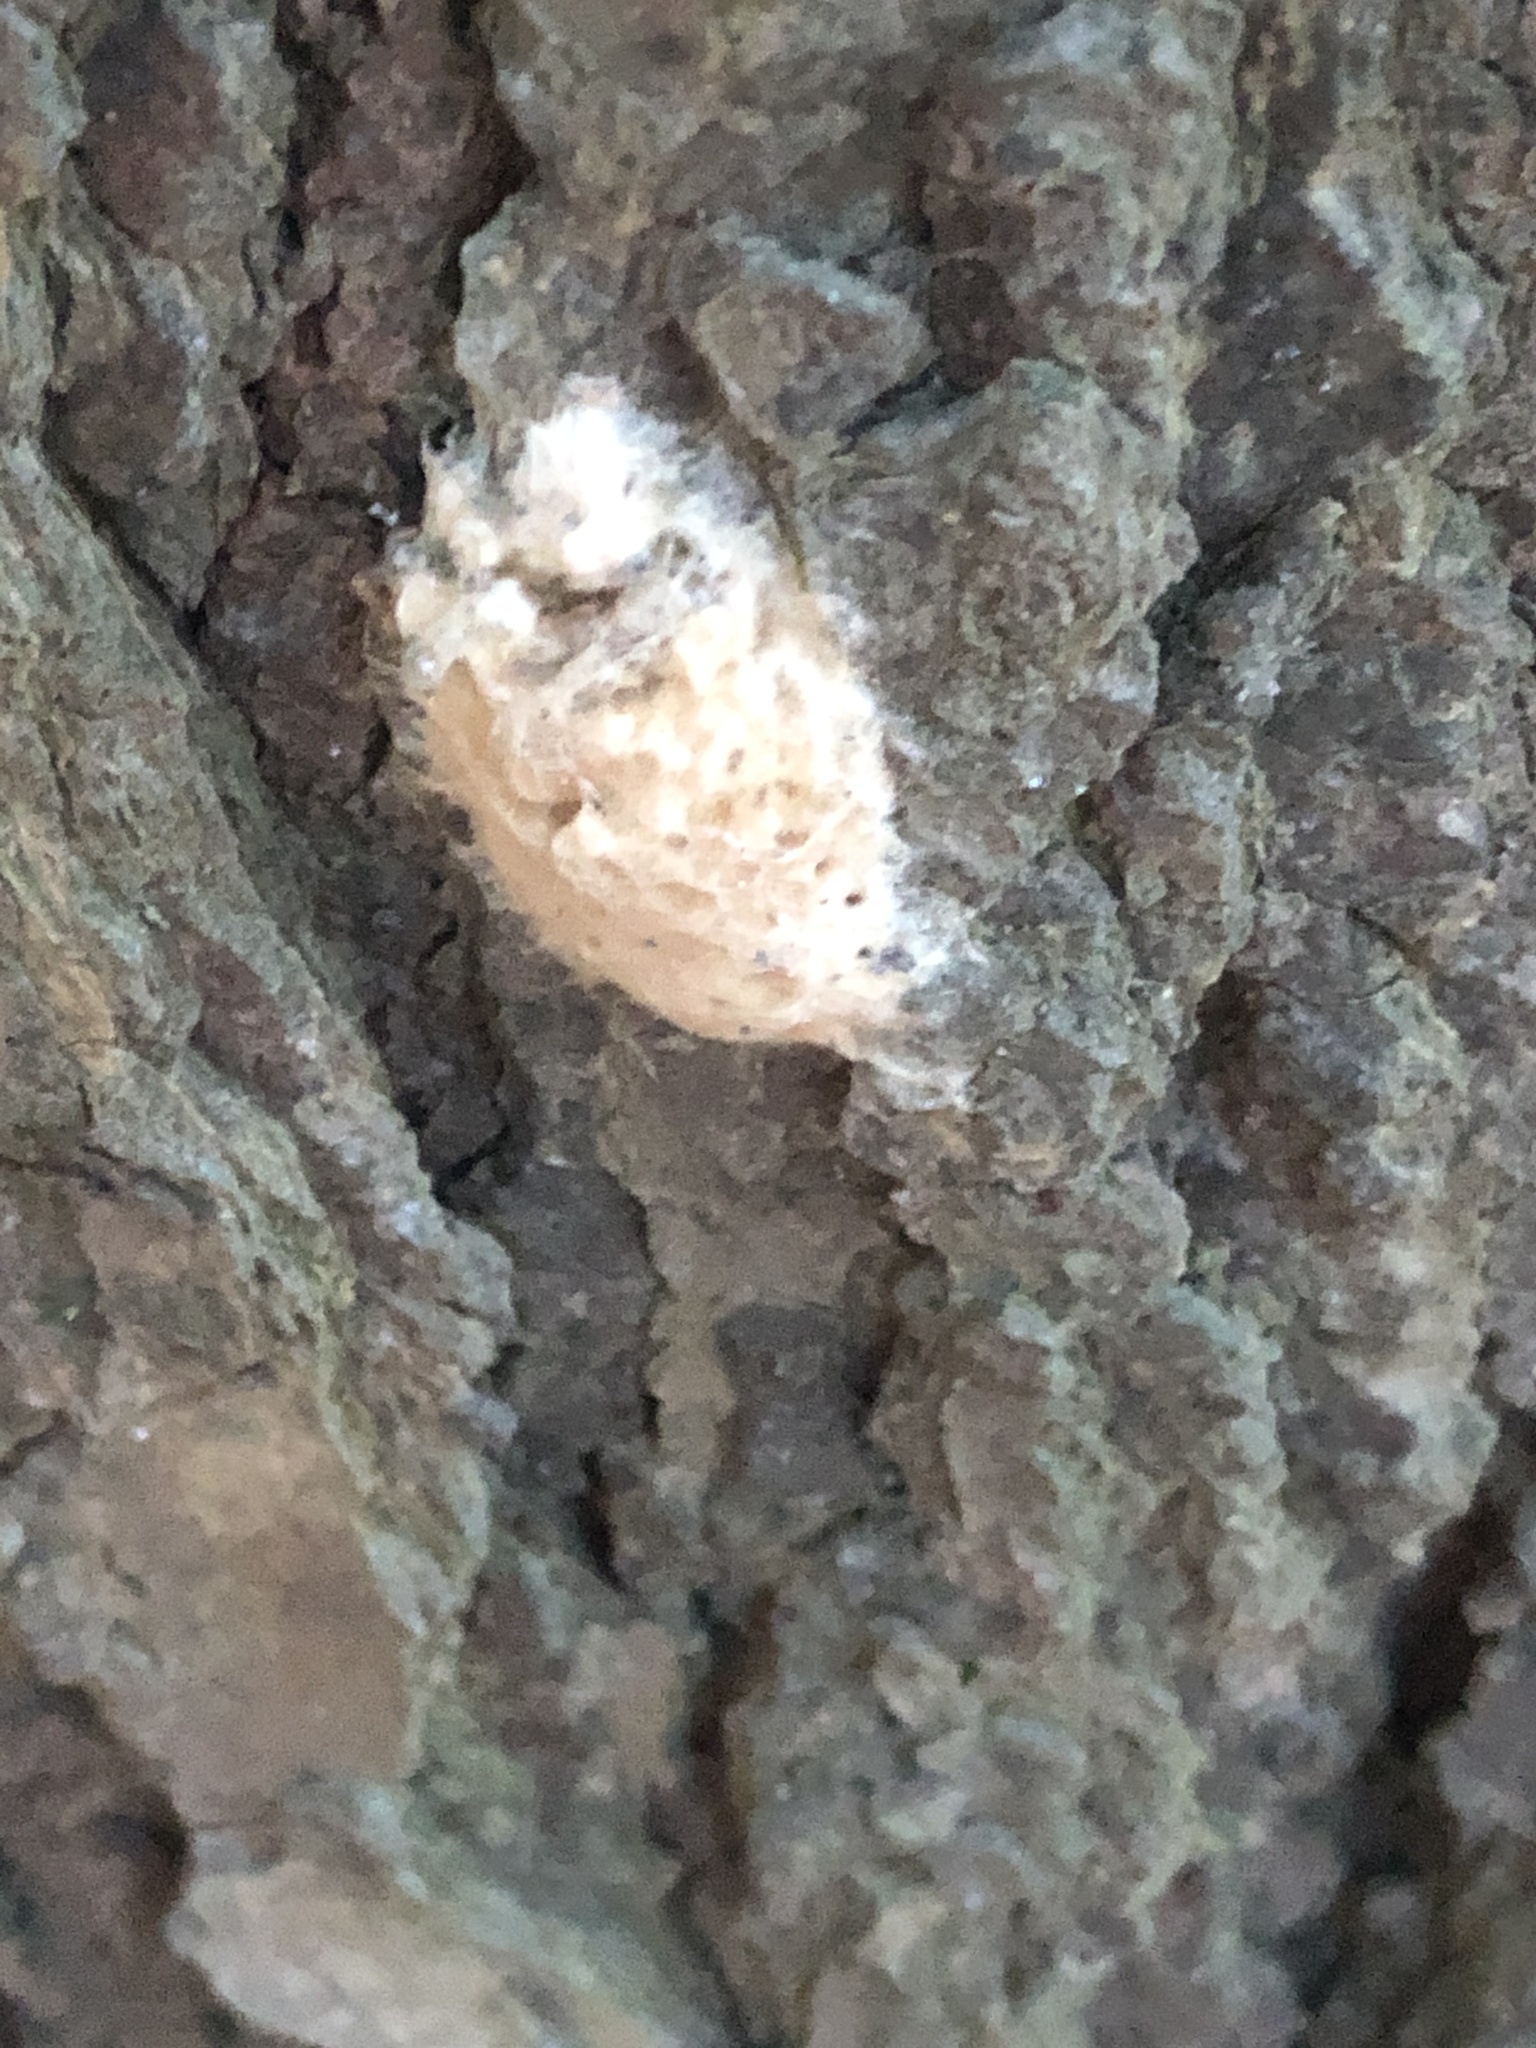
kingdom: Animalia
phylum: Arthropoda
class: Insecta
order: Lepidoptera
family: Erebidae
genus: Lymantria
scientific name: Lymantria dispar
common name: Gypsy moth
